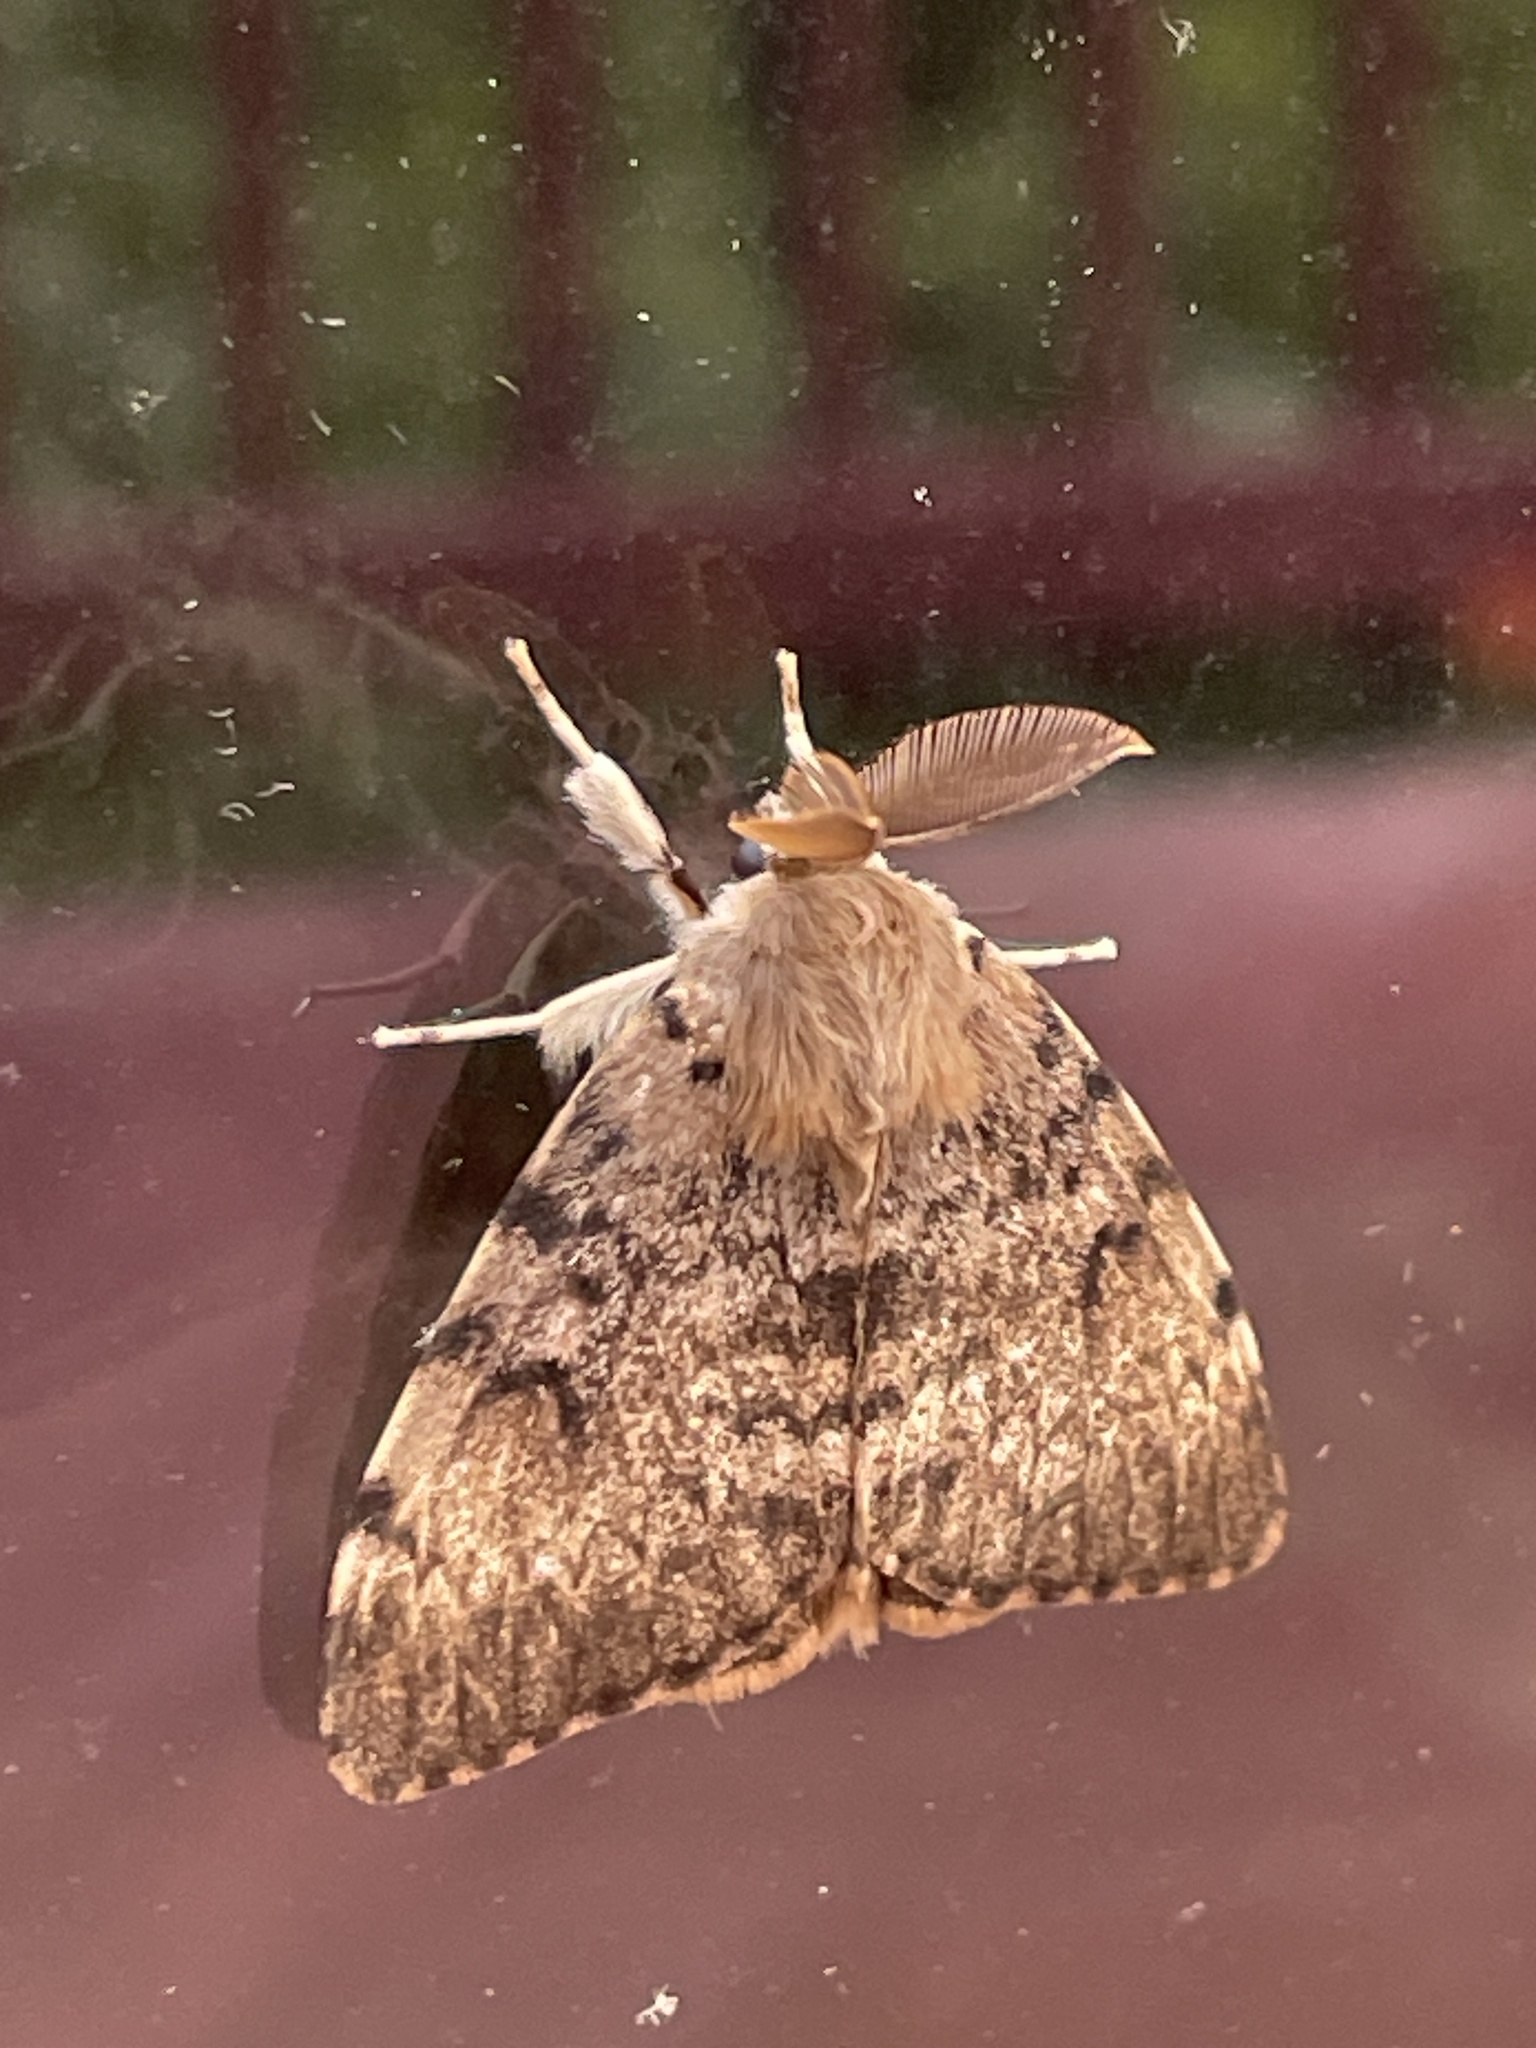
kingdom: Animalia
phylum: Arthropoda
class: Insecta
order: Lepidoptera
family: Erebidae
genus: Lymantria
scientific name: Lymantria dispar
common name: Gypsy moth
